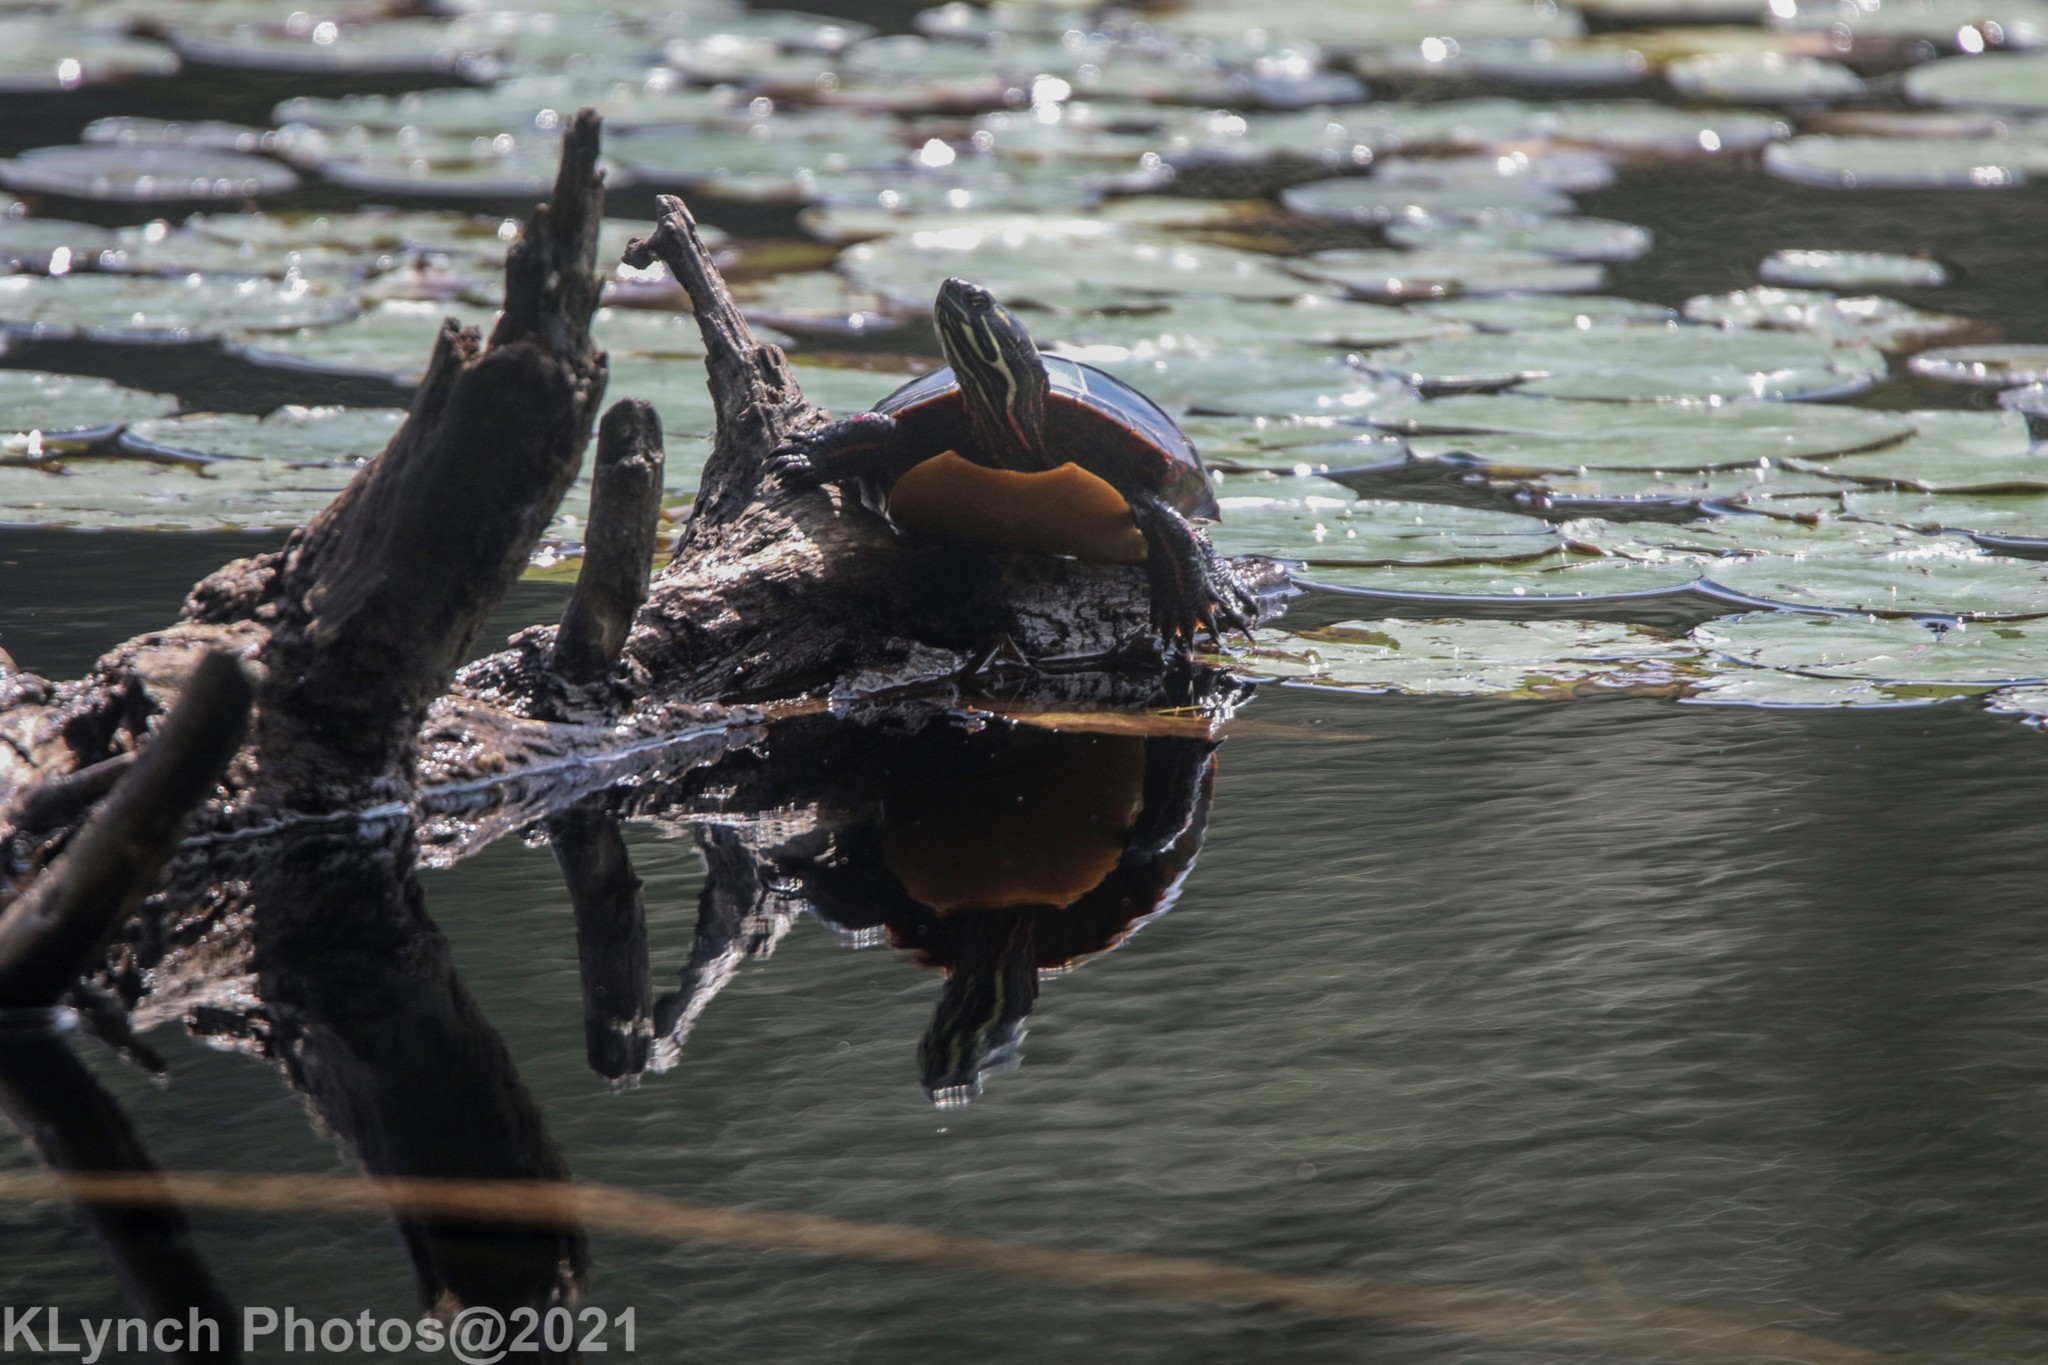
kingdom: Animalia
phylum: Chordata
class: Testudines
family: Emydidae
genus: Chrysemys
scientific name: Chrysemys picta
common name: Painted turtle
